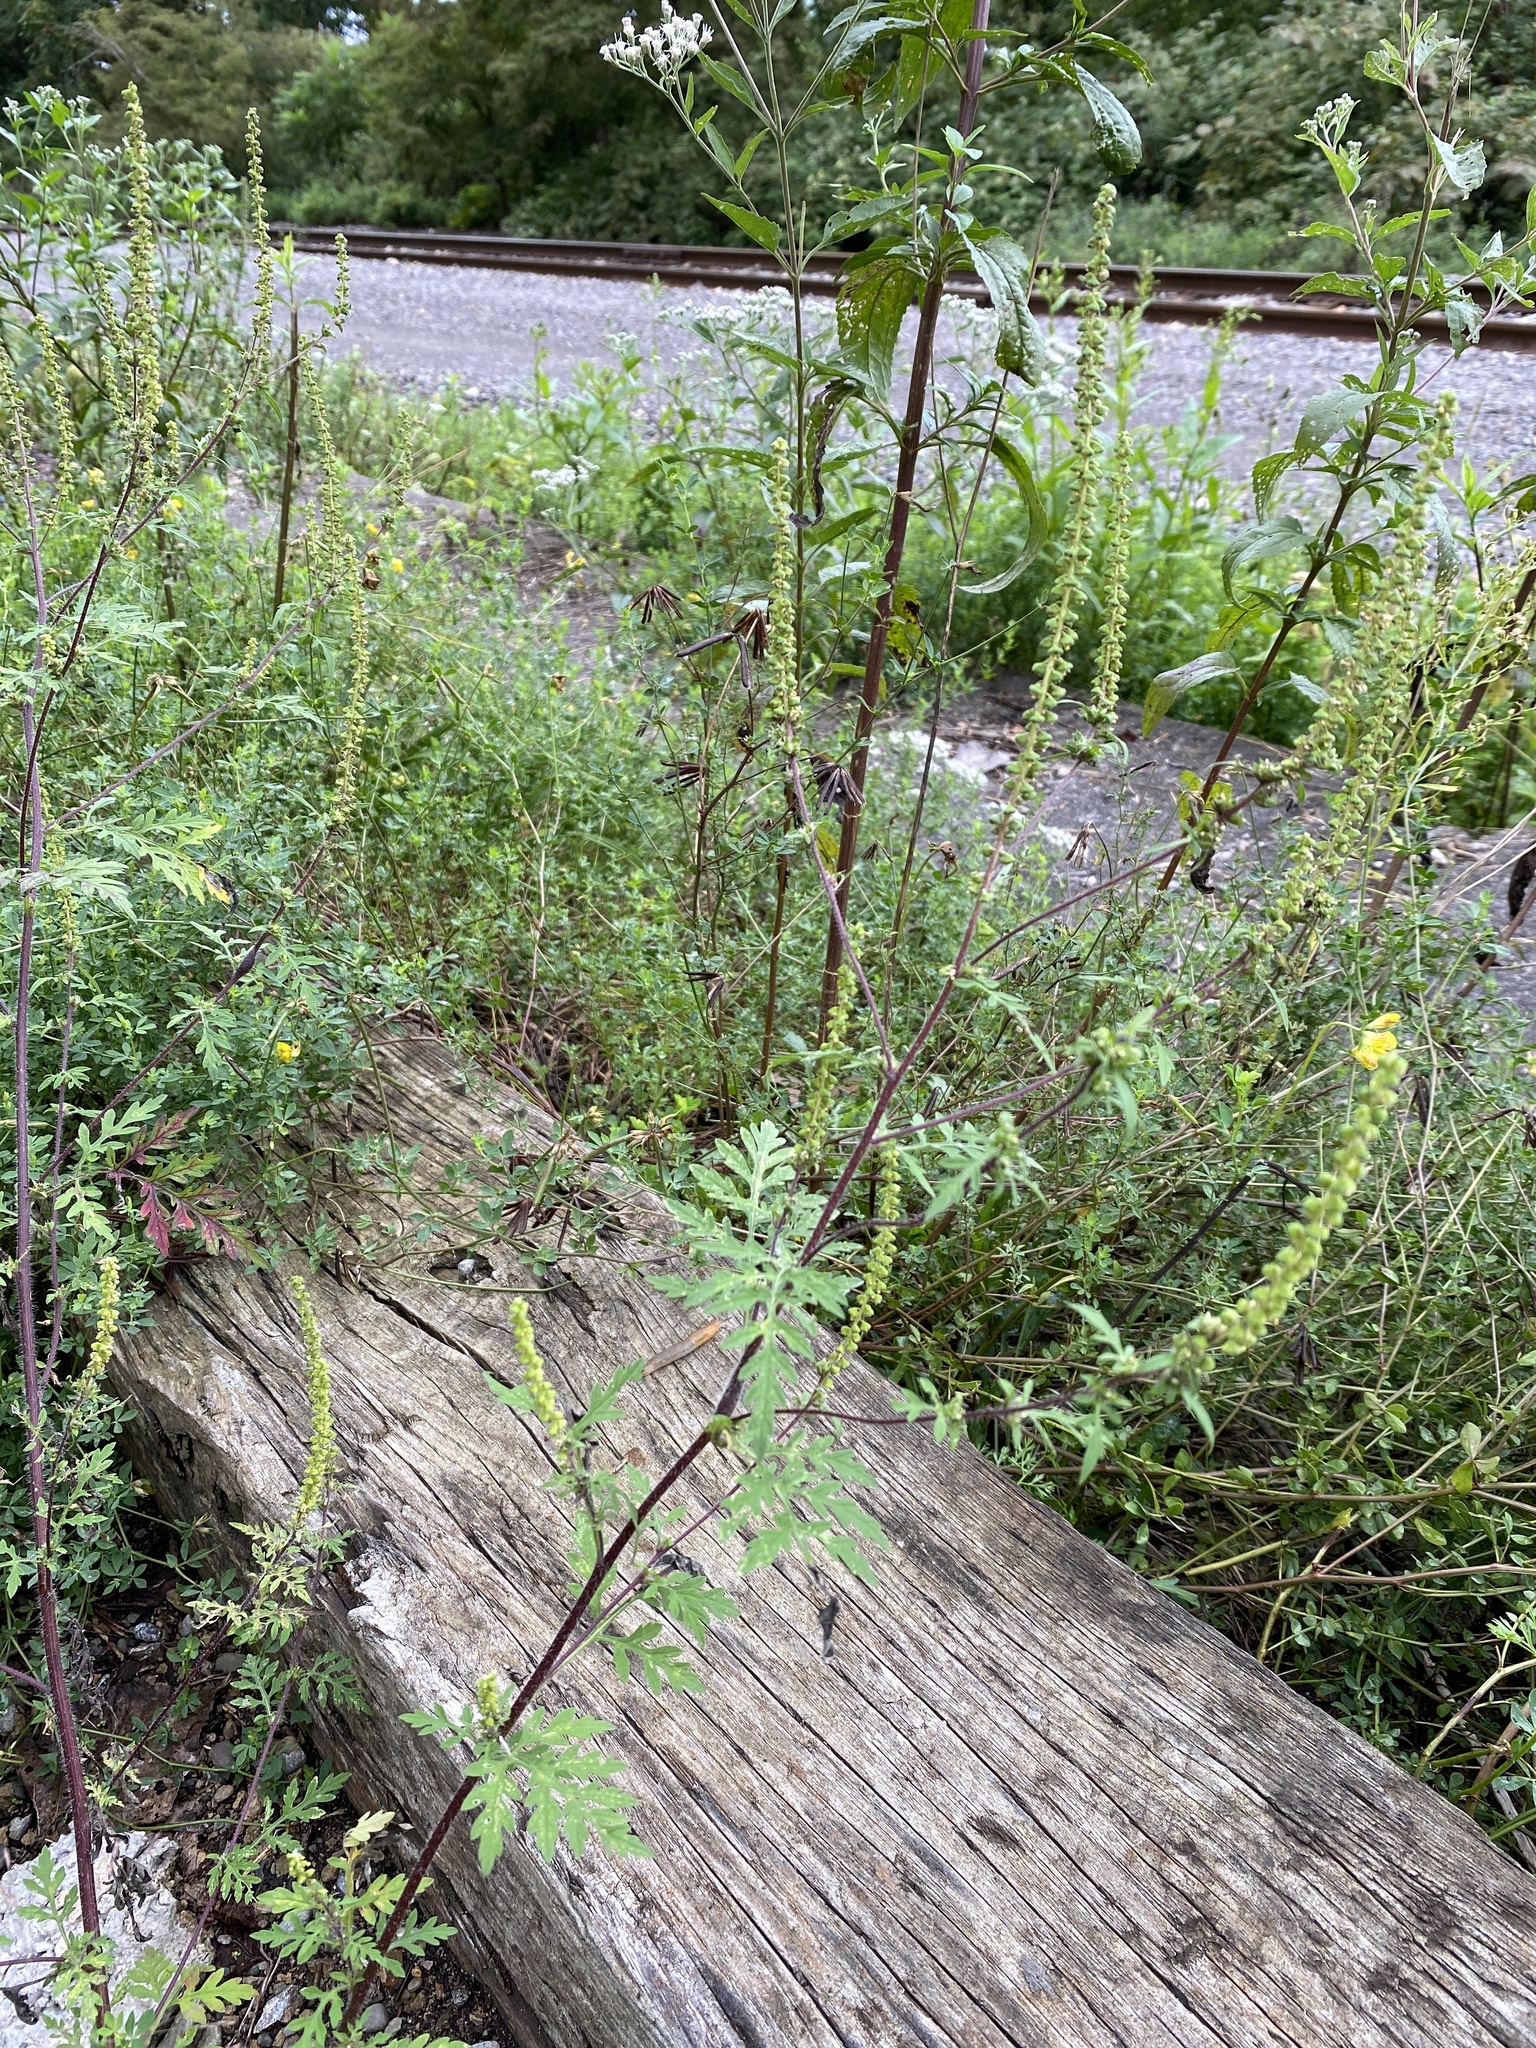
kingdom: Plantae
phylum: Tracheophyta
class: Magnoliopsida
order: Asterales
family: Asteraceae
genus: Ambrosia
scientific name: Ambrosia artemisiifolia
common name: Annual ragweed
